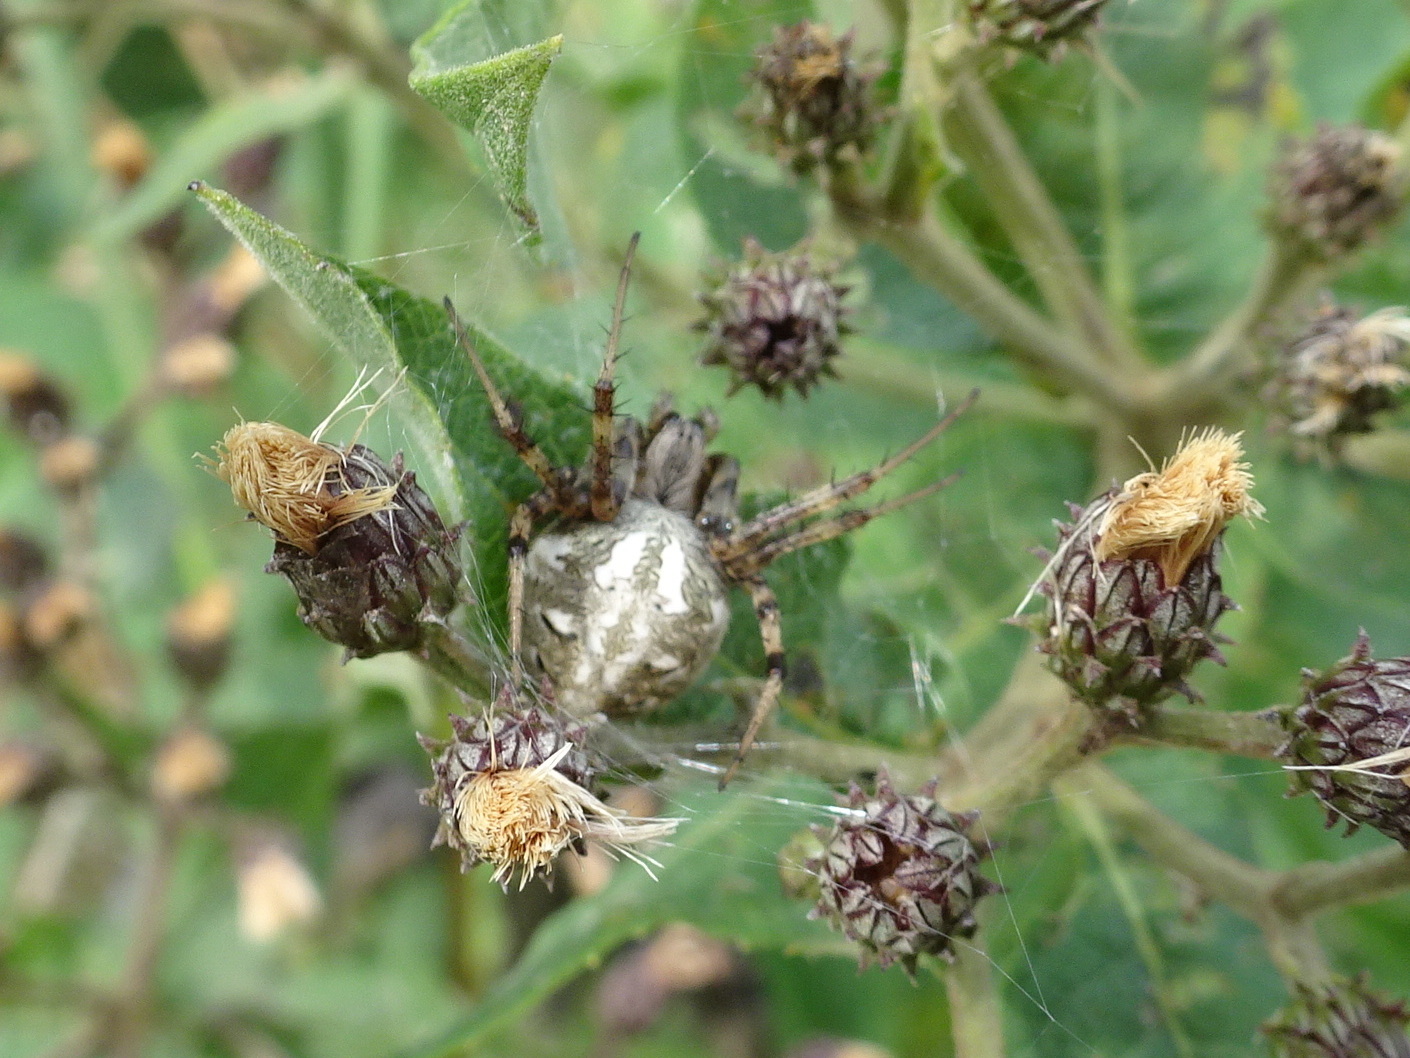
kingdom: Animalia
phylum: Arthropoda
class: Arachnida
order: Araneae
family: Araneidae
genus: Neoscona
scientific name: Neoscona arabesca
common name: Orb weavers
